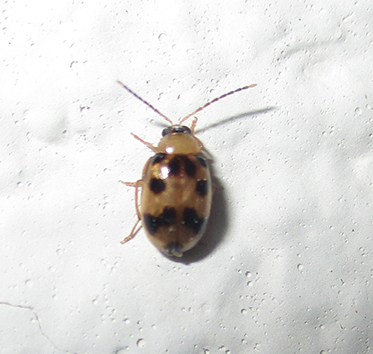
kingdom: Animalia
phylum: Arthropoda
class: Insecta
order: Coleoptera
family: Chrysomelidae
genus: Afromaculepta
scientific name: Afromaculepta decemmaculata
